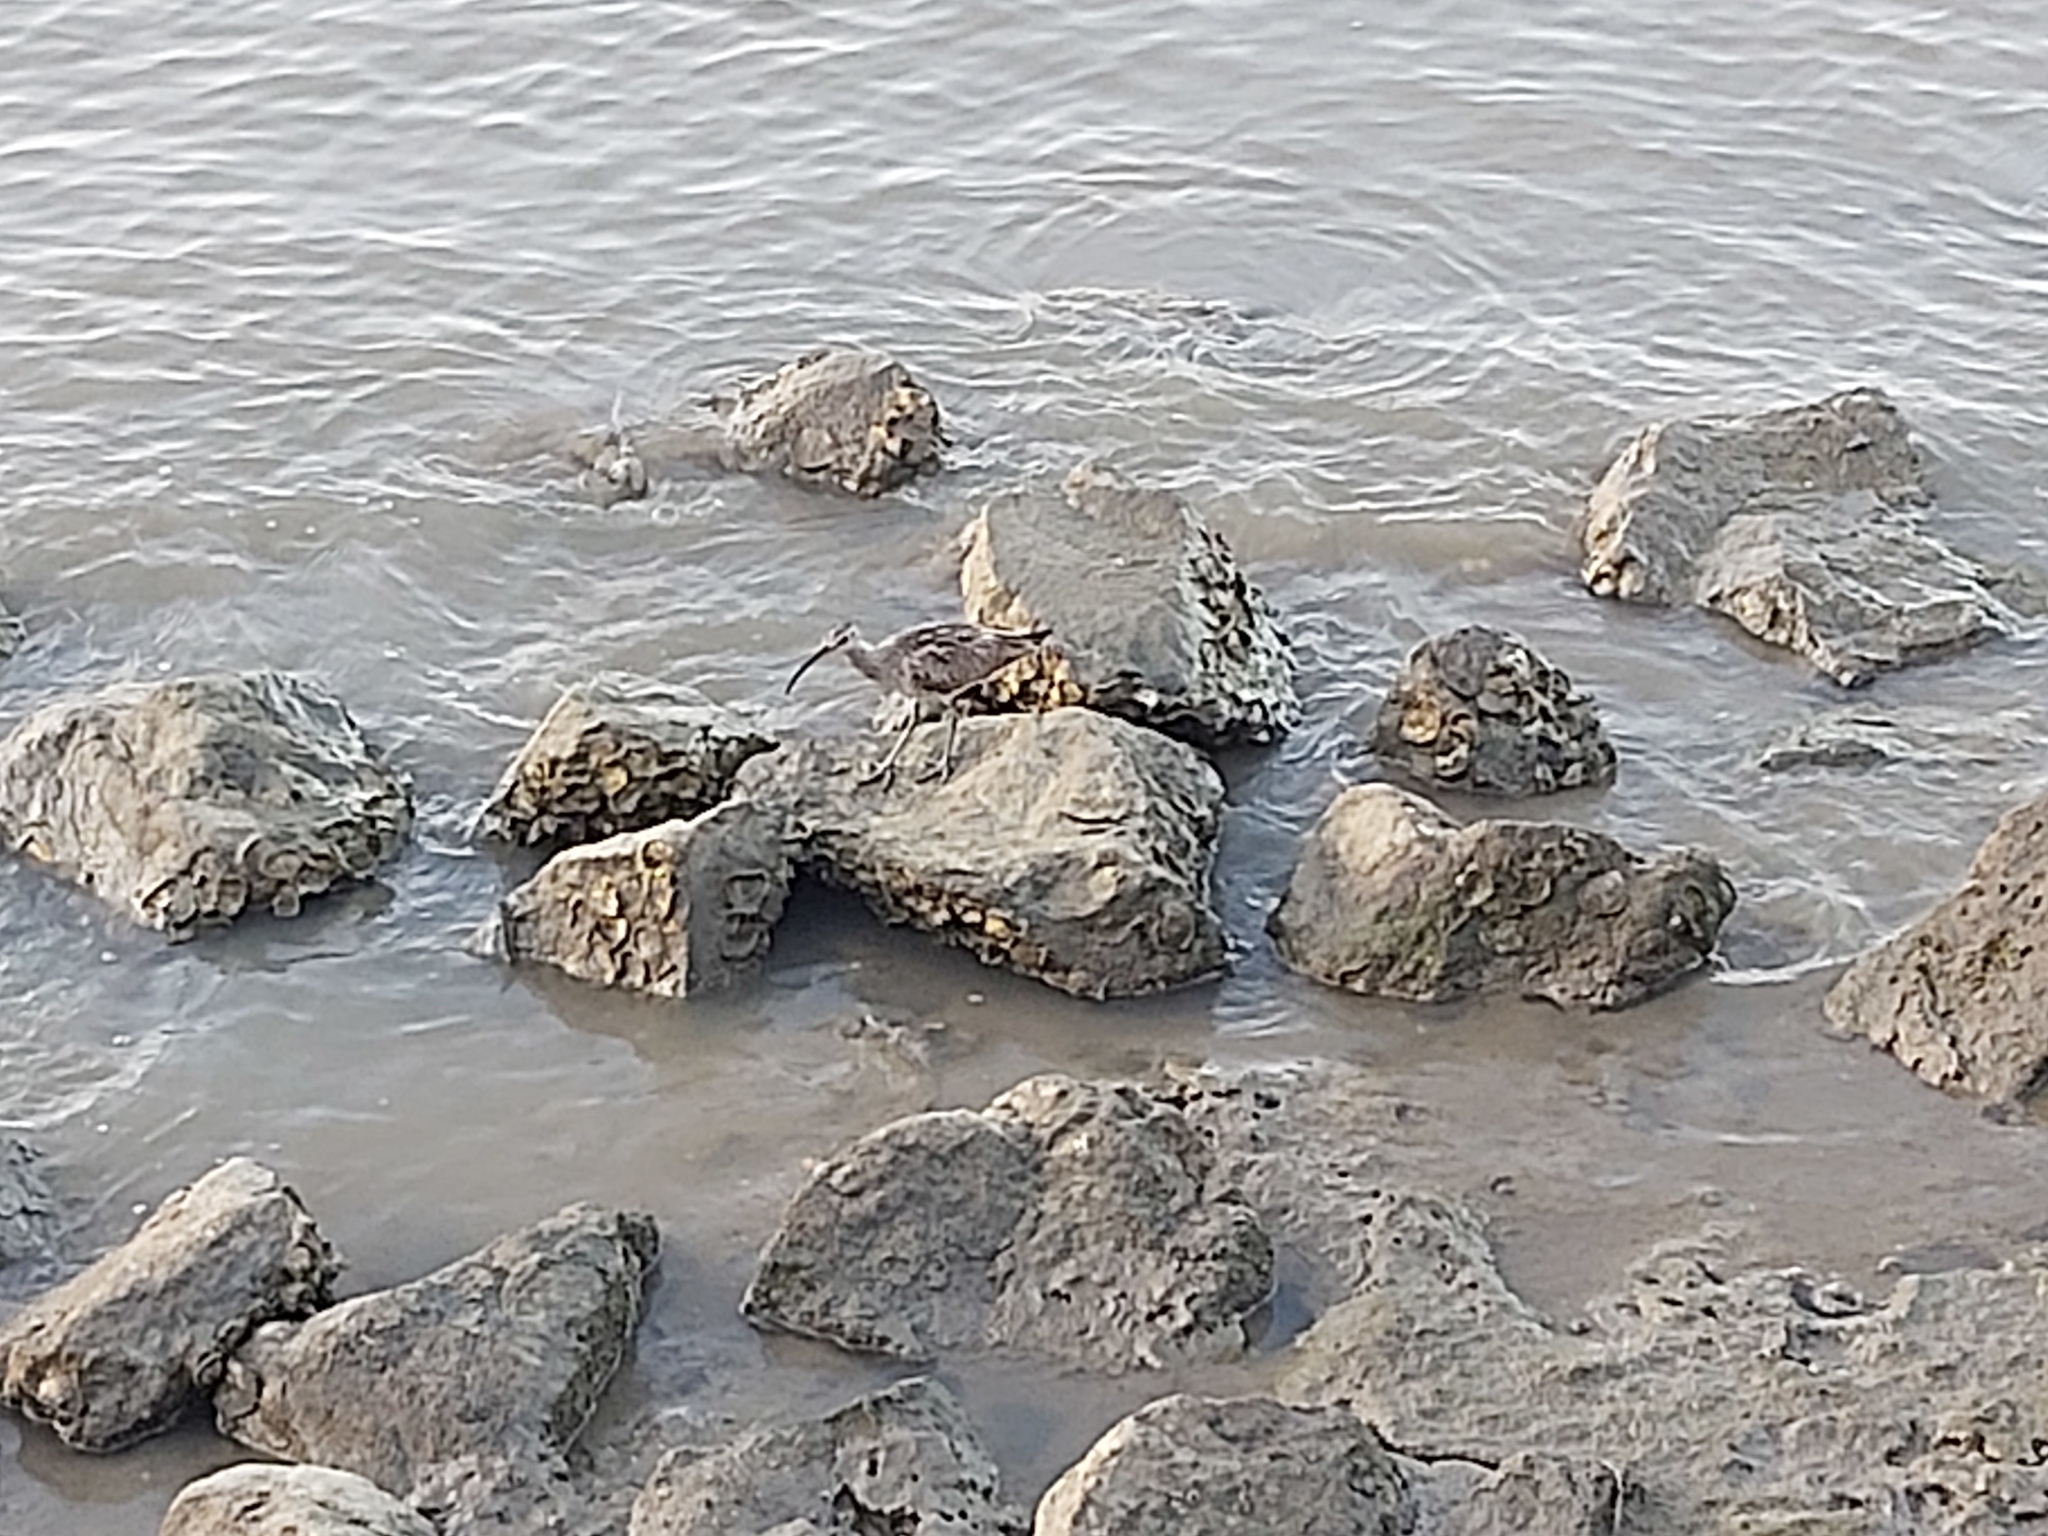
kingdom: Animalia
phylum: Chordata
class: Aves
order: Charadriiformes
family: Scolopacidae
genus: Numenius
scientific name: Numenius phaeopus
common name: Whimbrel
